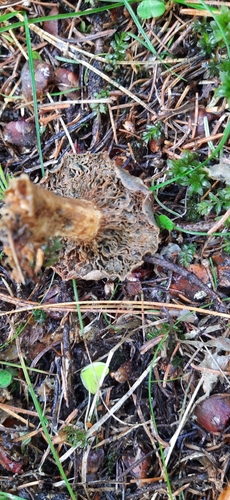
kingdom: Fungi
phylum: Basidiomycota
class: Agaricomycetes
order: Russulales
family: Russulaceae
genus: Lactarius
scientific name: Lactarius deterrimus
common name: False saffron milkcap
